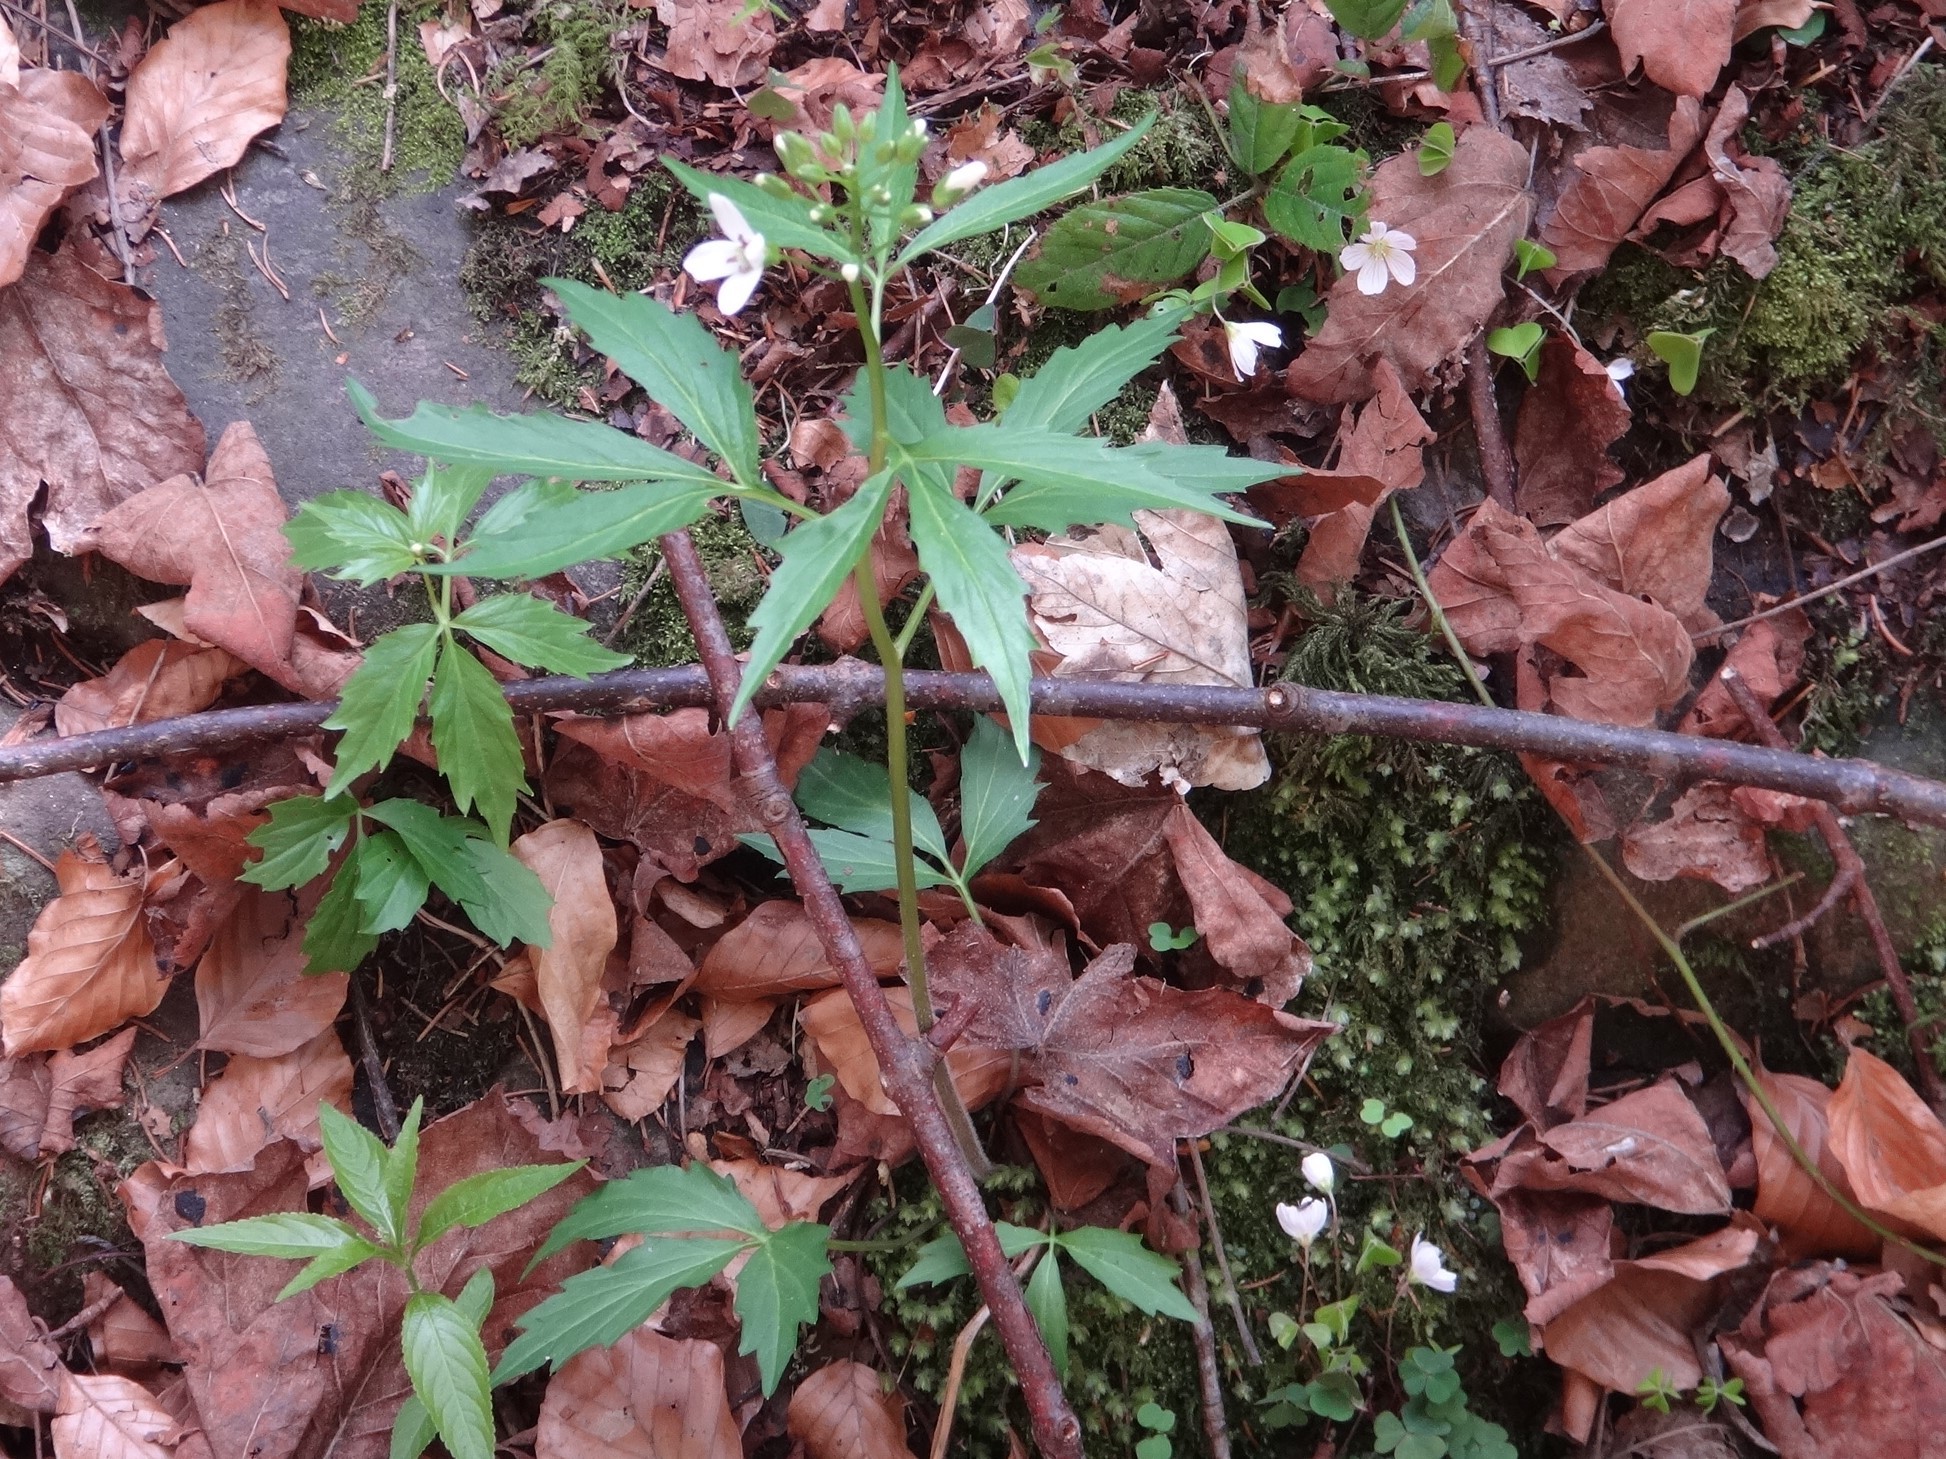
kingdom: Plantae
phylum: Tracheophyta
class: Magnoliopsida
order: Brassicales
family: Brassicaceae
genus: Cardamine
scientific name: Cardamine waldsteinii
